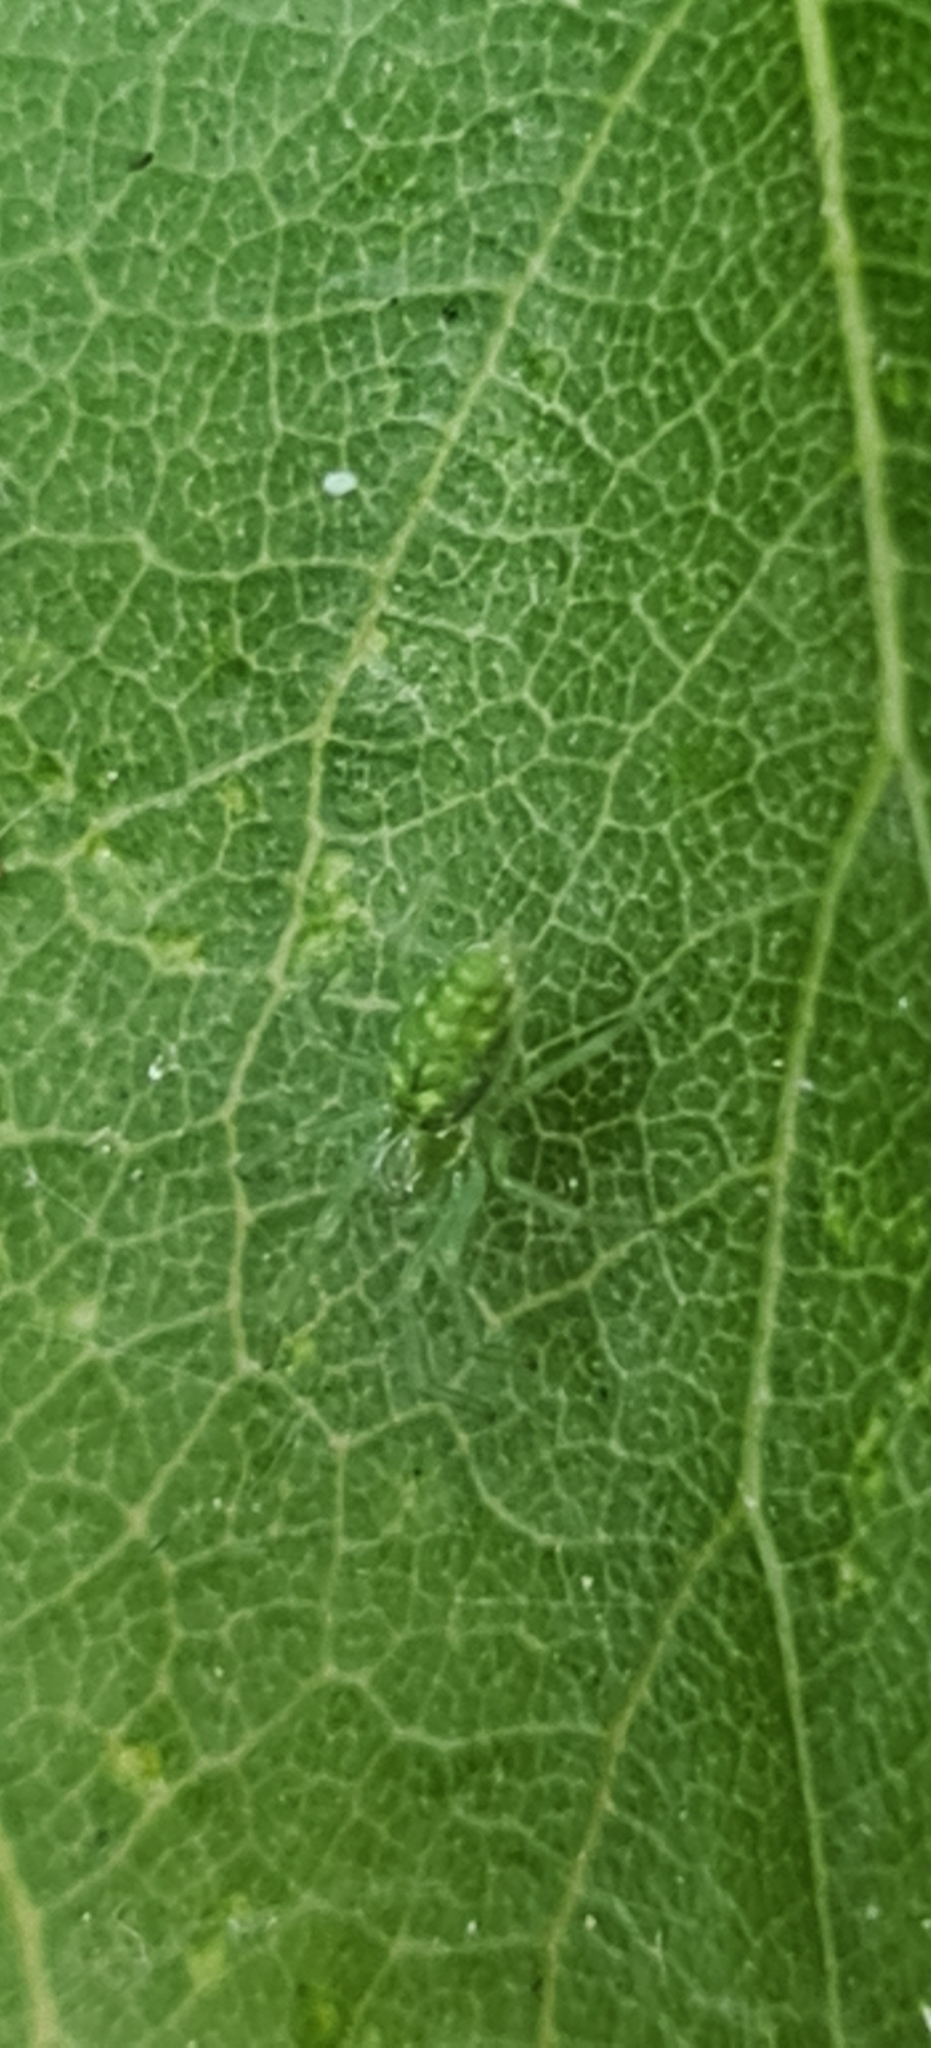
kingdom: Animalia
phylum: Arthropoda
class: Arachnida
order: Araneae
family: Dictynidae
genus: Nigma
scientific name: Nigma walckenaeri
